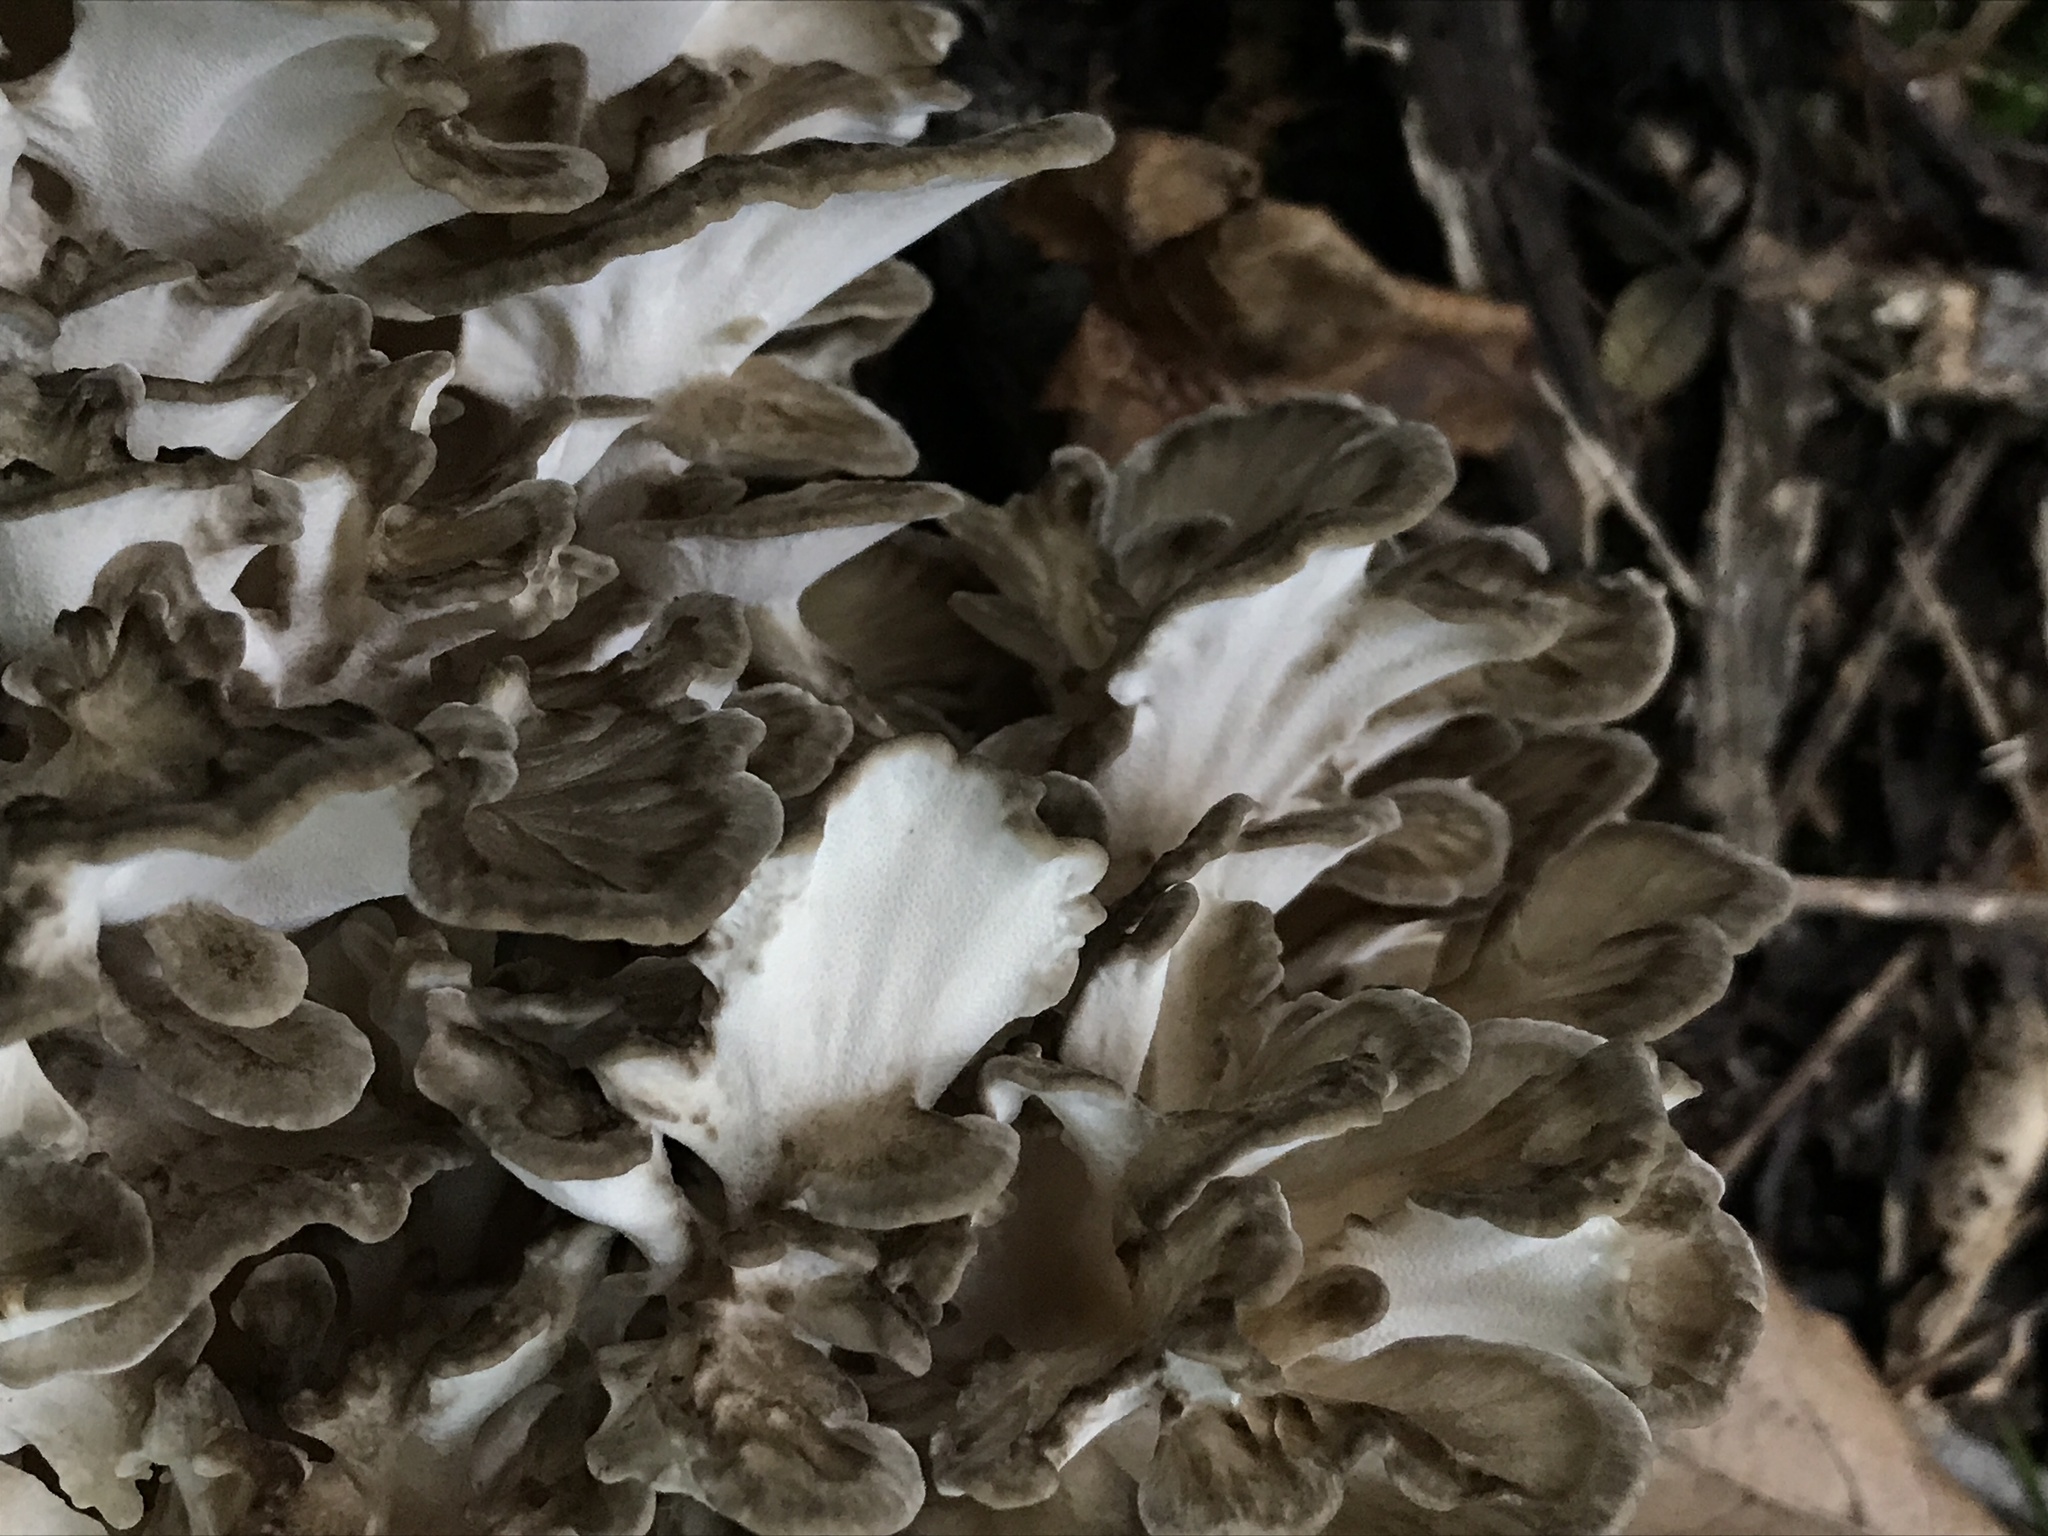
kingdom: Fungi
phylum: Basidiomycota
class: Agaricomycetes
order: Polyporales
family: Grifolaceae
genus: Grifola
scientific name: Grifola frondosa
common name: Hen of the woods
